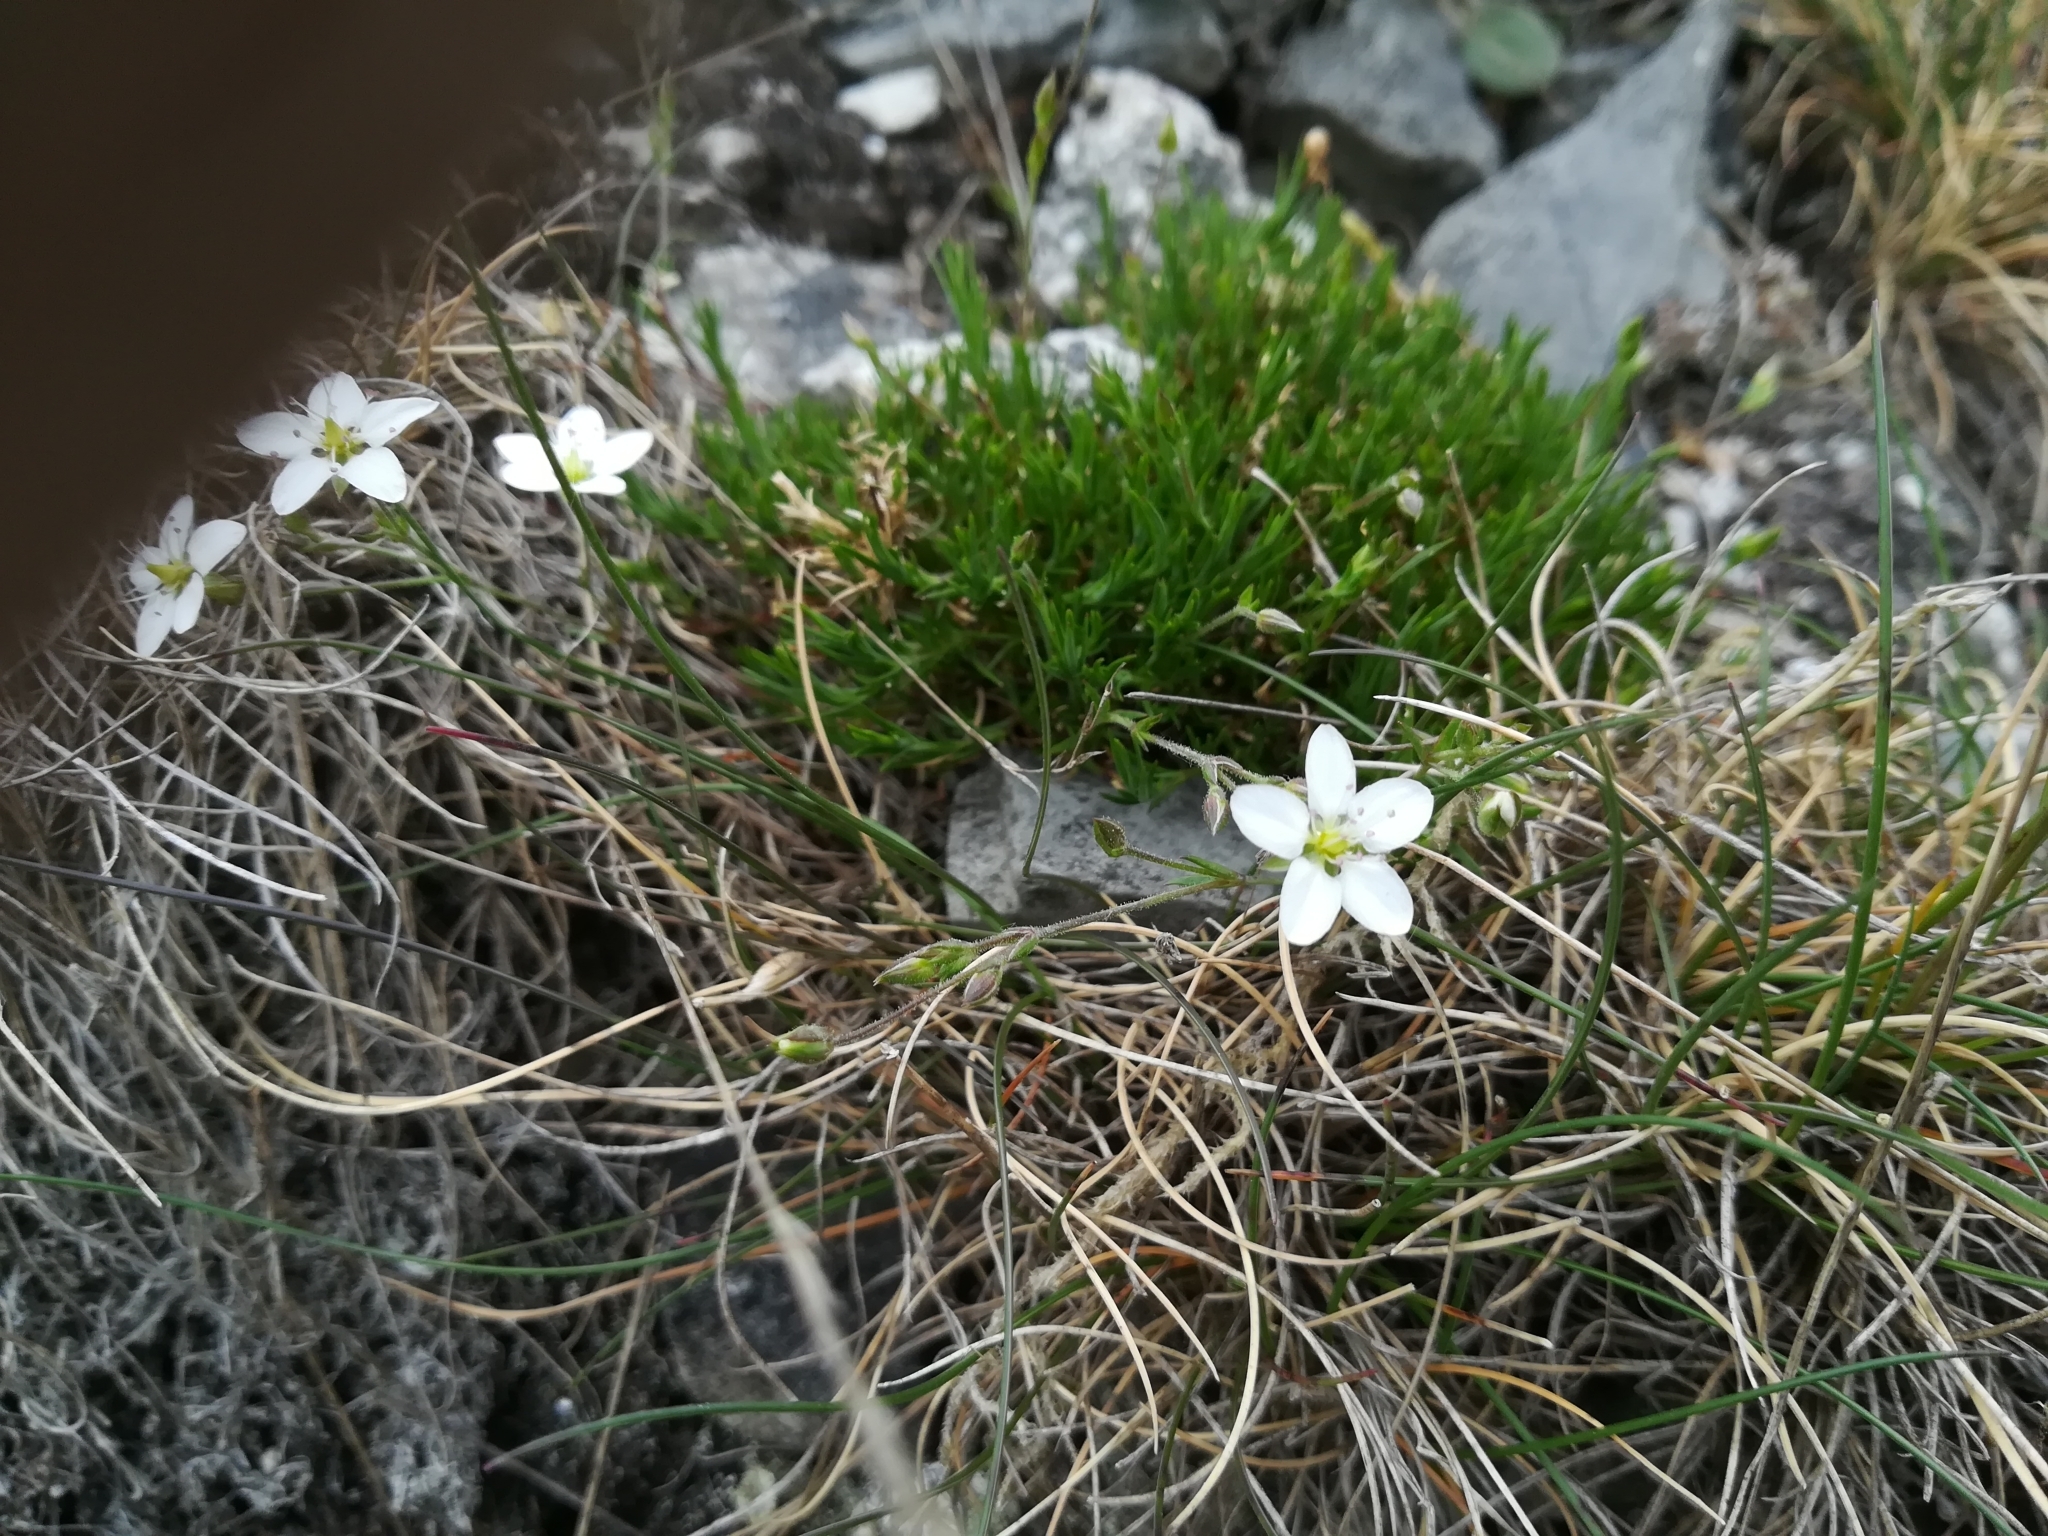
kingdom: Plantae
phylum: Tracheophyta
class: Magnoliopsida
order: Caryophyllales
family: Caryophyllaceae
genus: Sabulina
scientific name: Sabulina verna
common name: Spring sandwort
